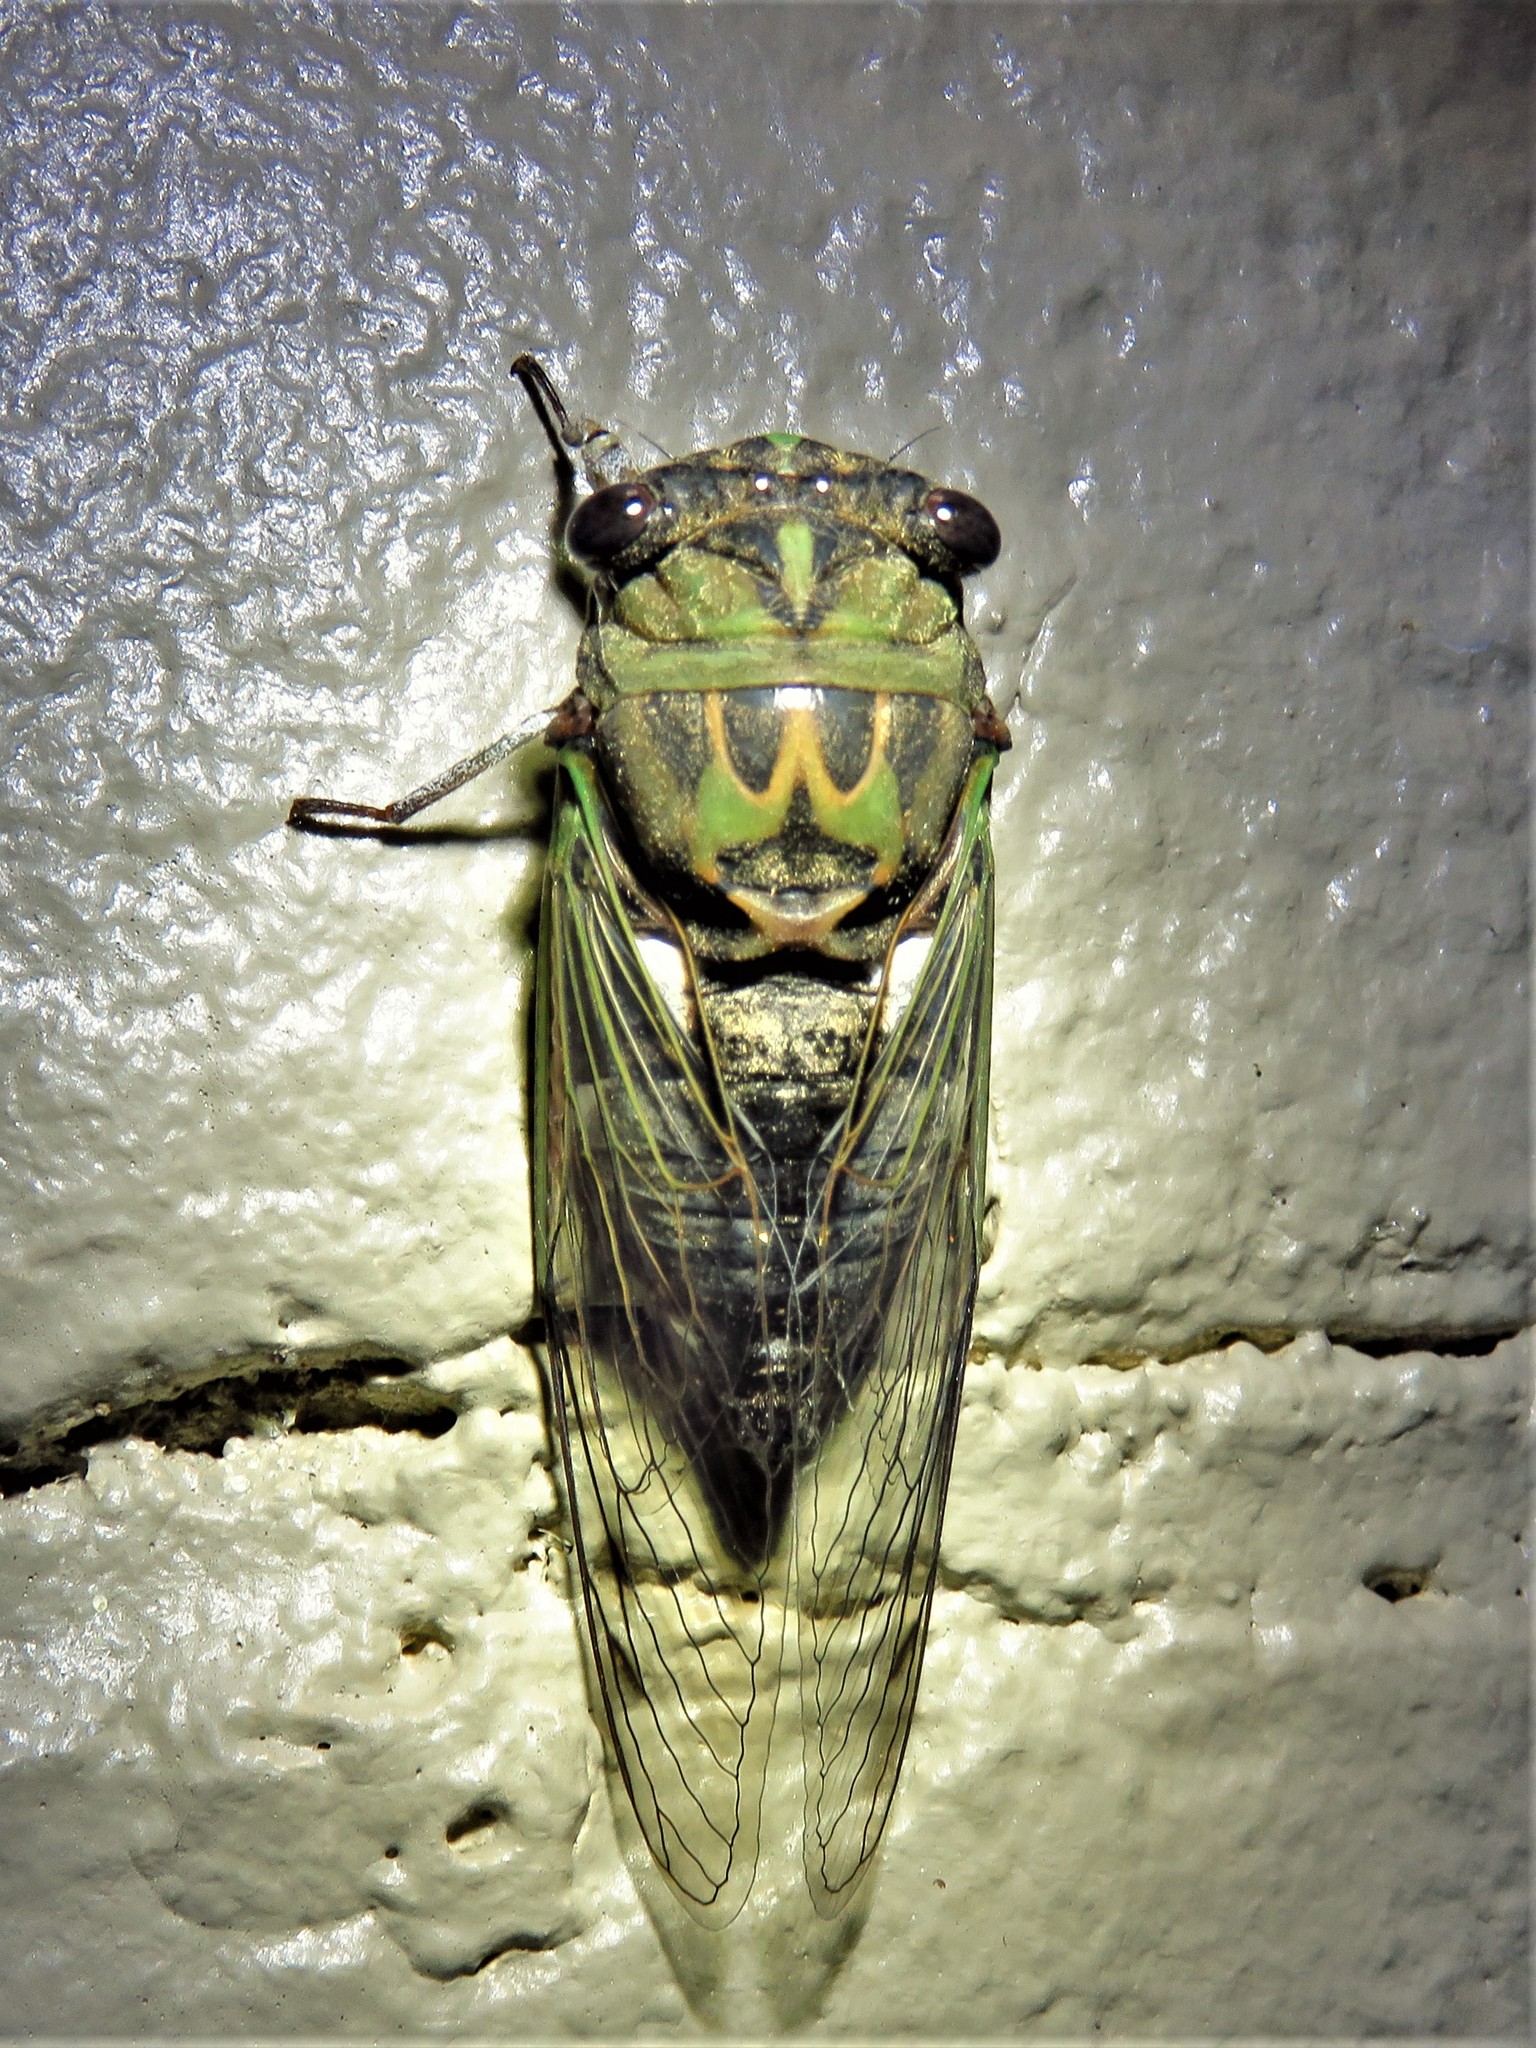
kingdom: Animalia
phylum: Arthropoda
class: Insecta
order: Hemiptera
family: Cicadidae
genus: Neotibicen
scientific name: Neotibicen pruinosus
